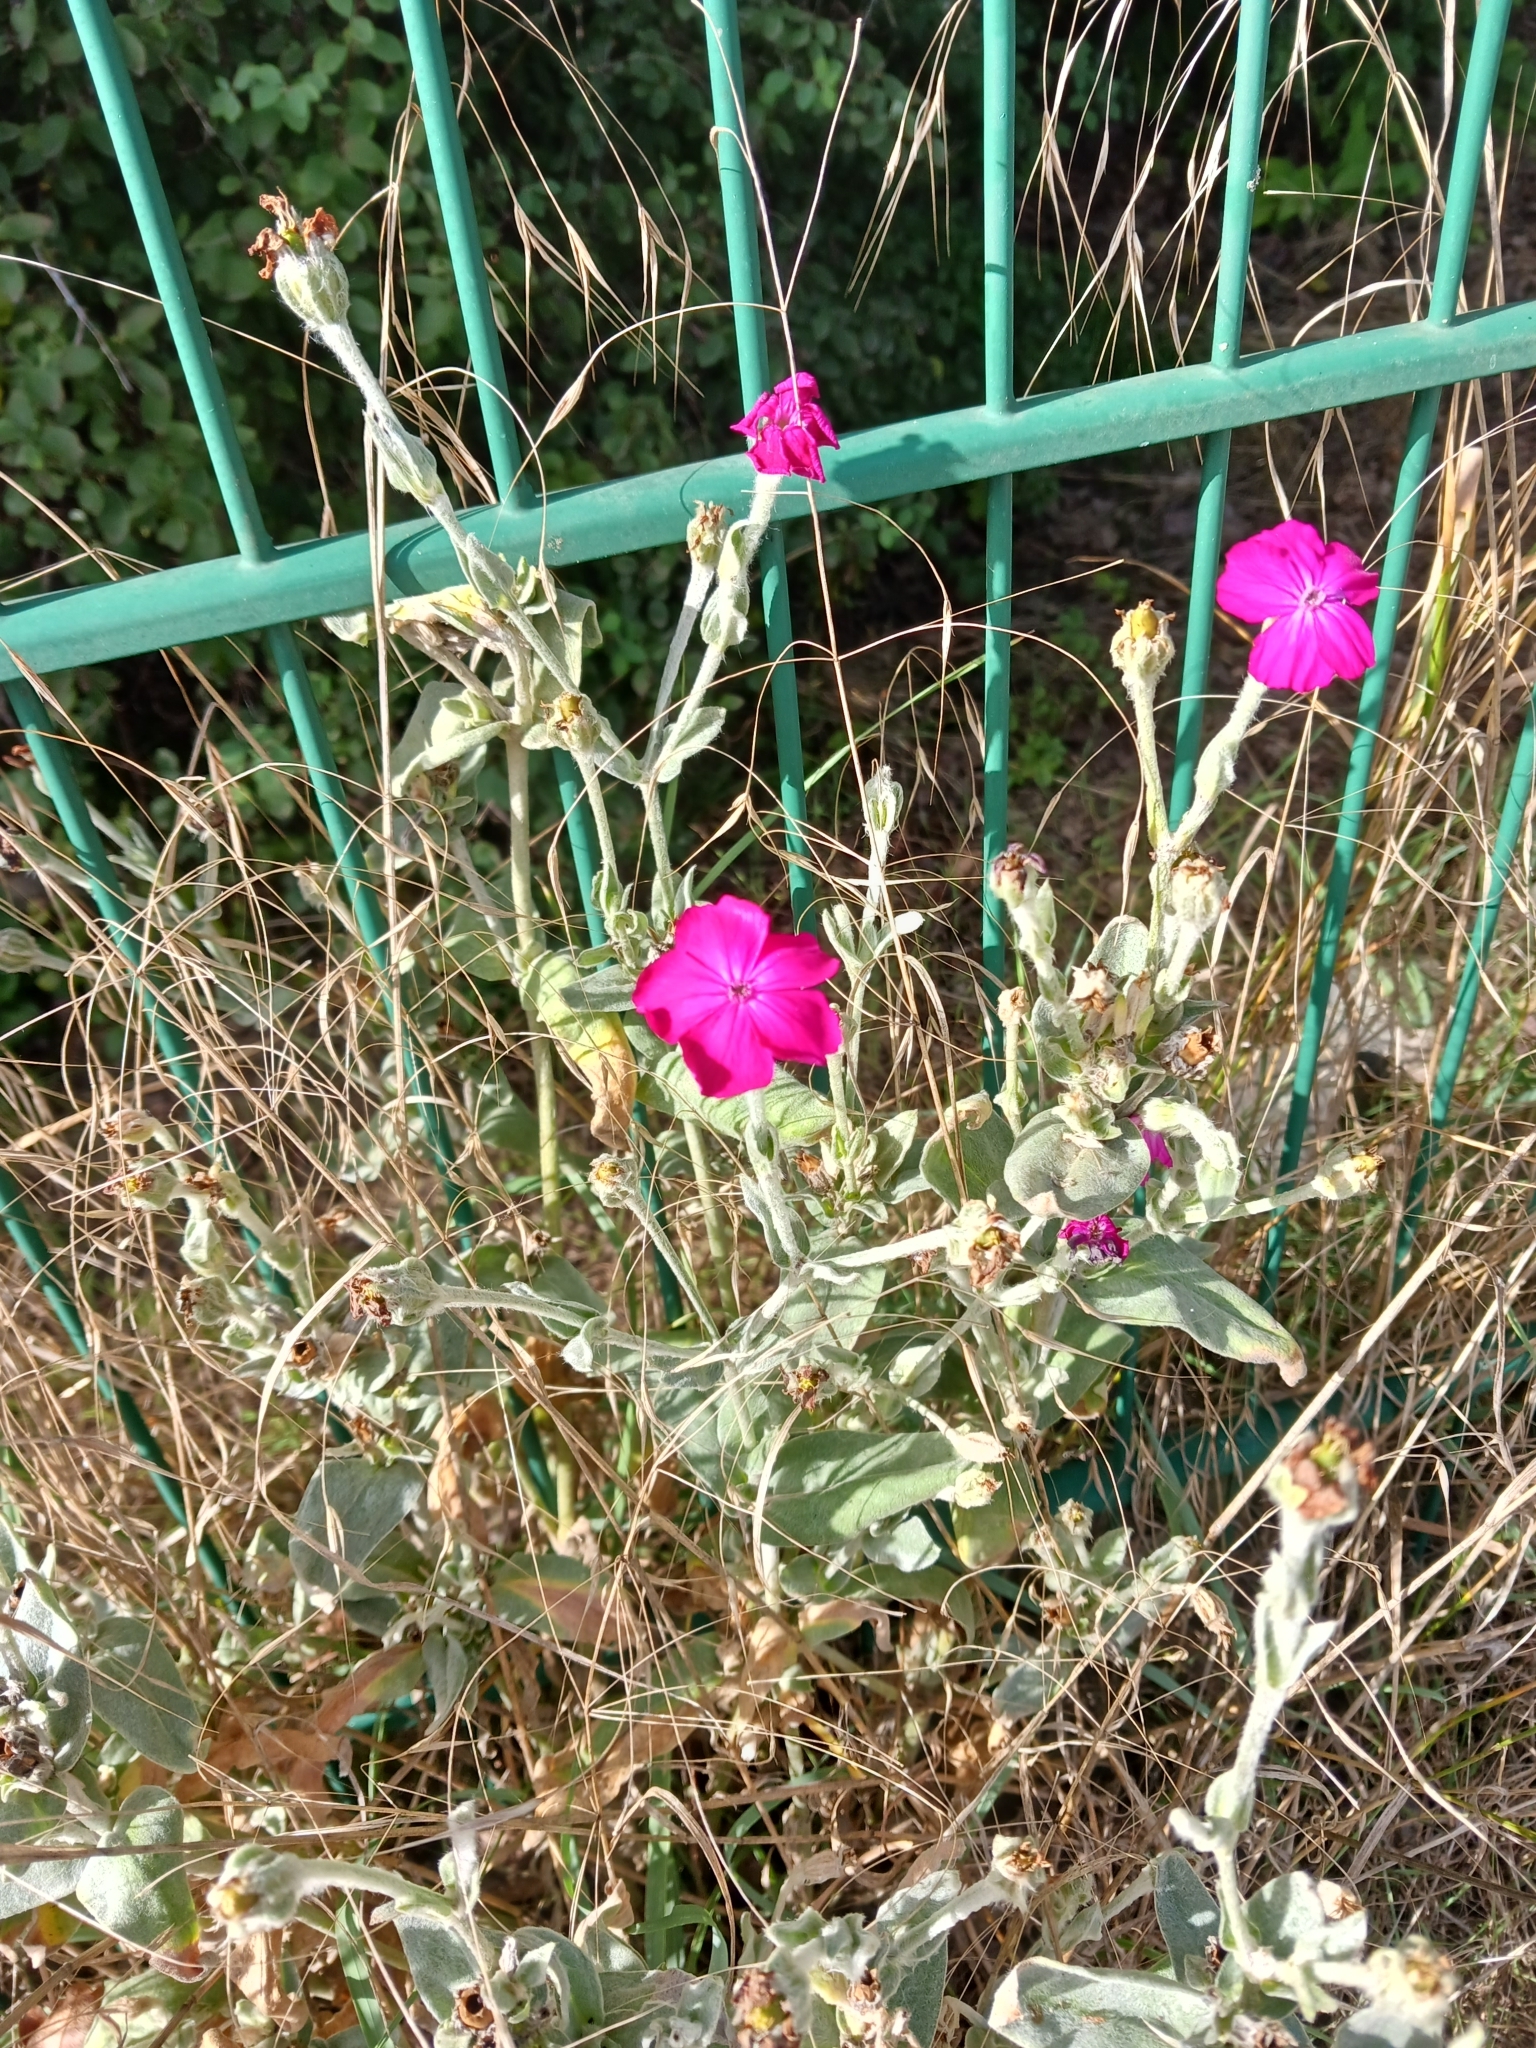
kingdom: Plantae
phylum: Tracheophyta
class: Magnoliopsida
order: Caryophyllales
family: Caryophyllaceae
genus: Silene
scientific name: Silene coronaria
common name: Rose campion
